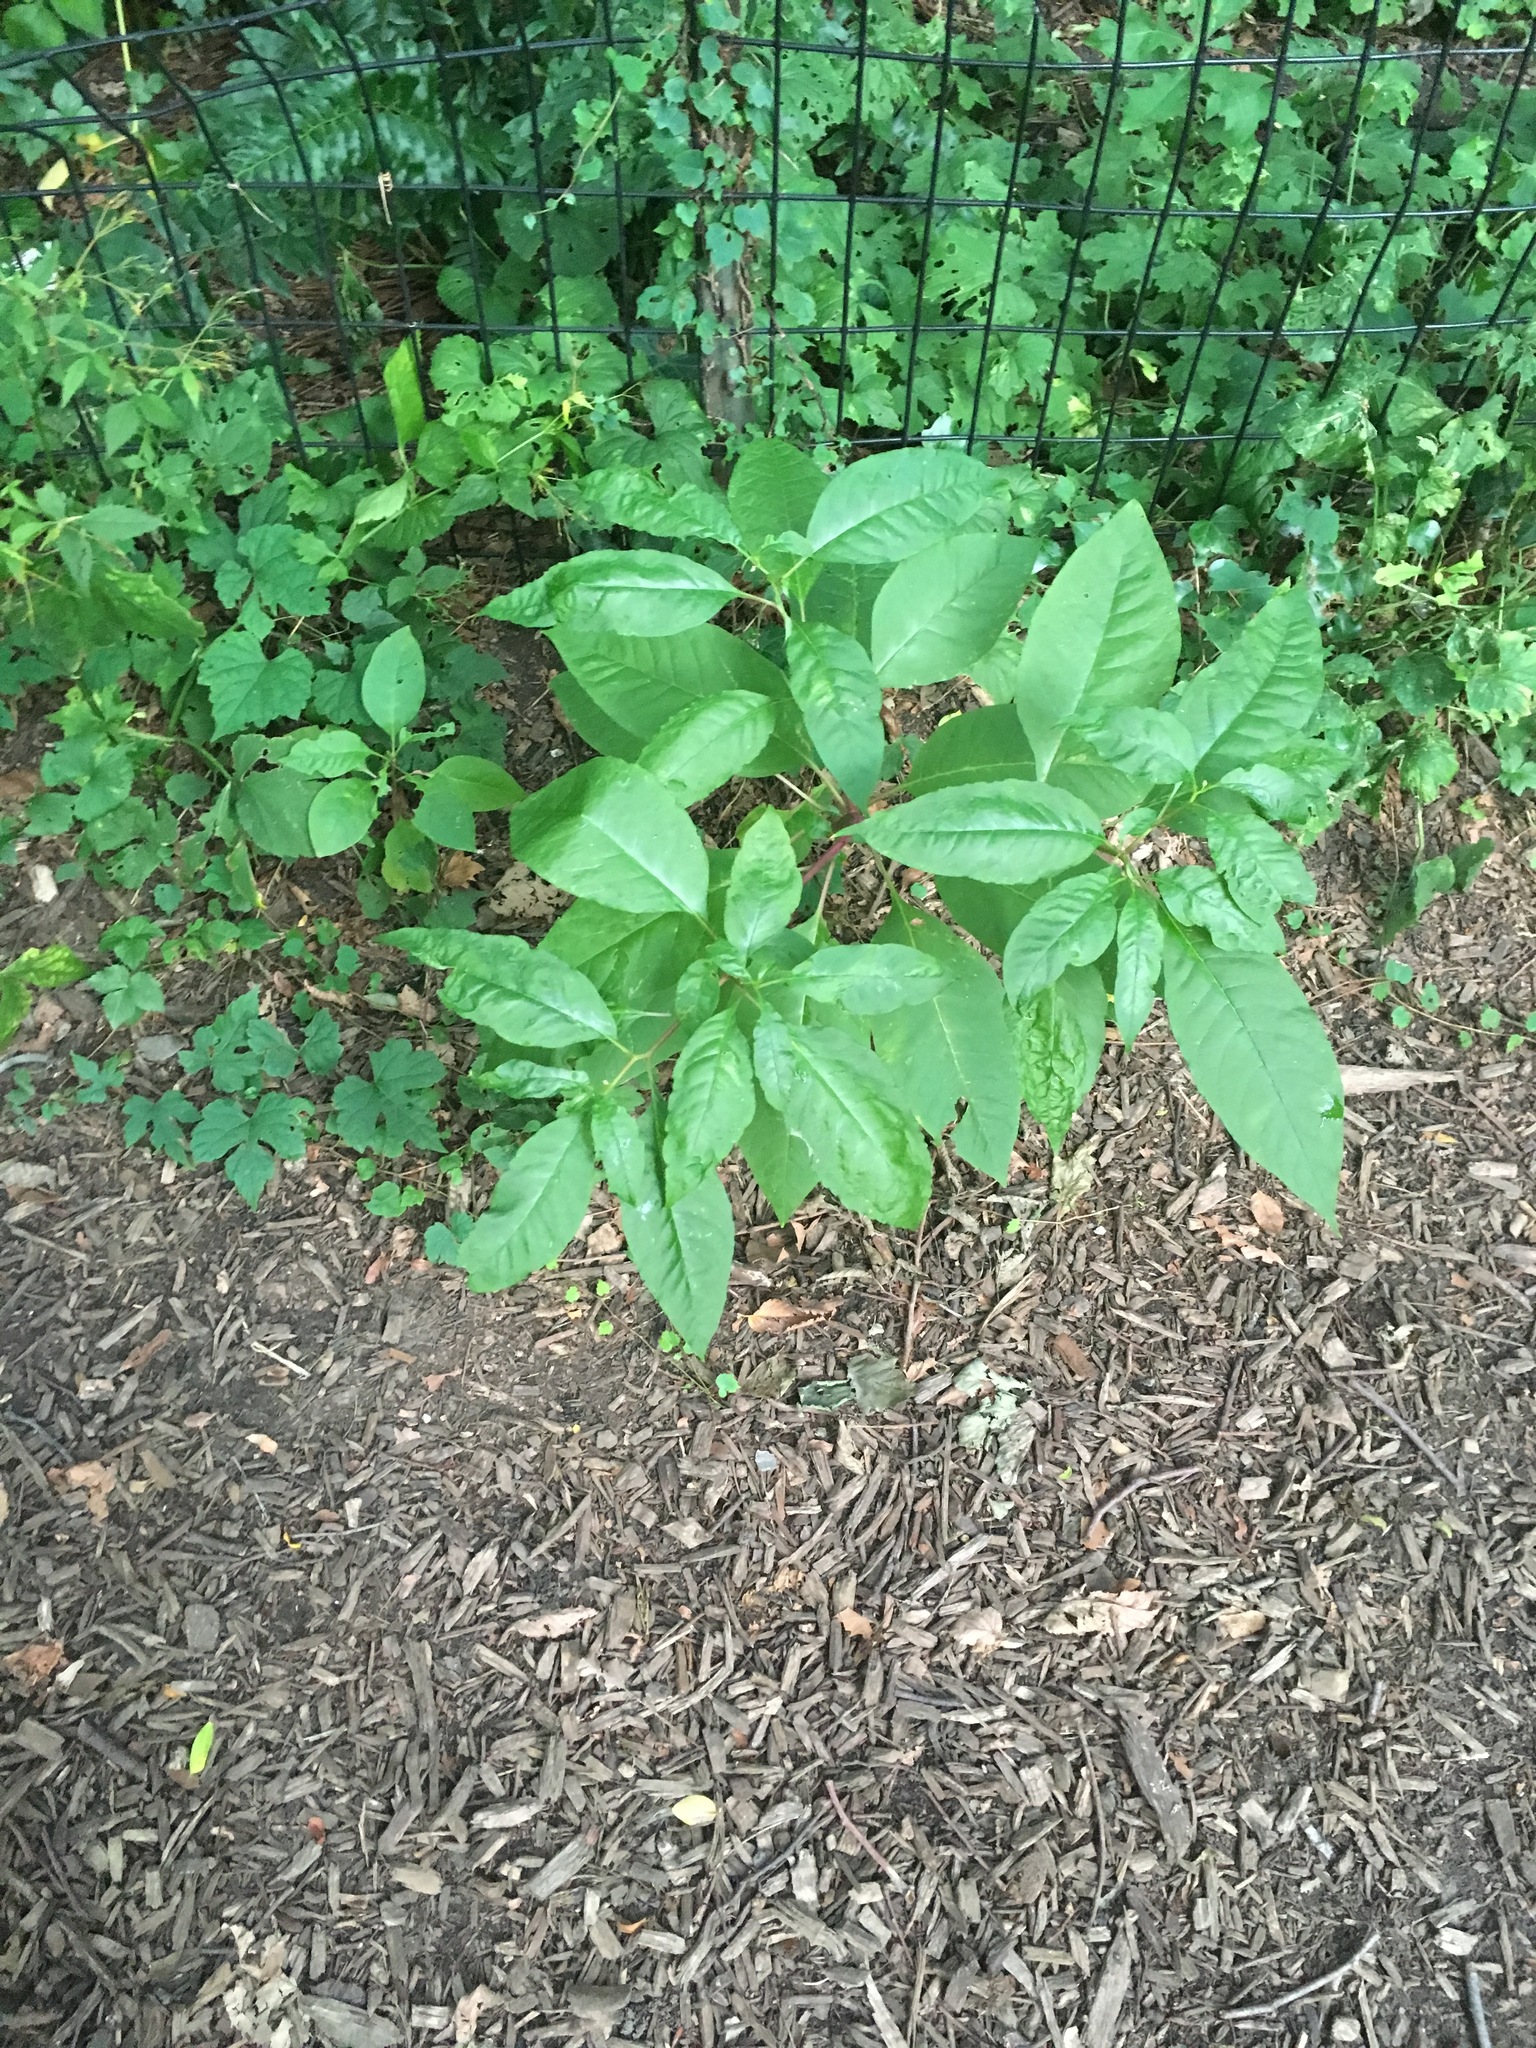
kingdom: Plantae
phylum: Tracheophyta
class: Magnoliopsida
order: Caryophyllales
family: Phytolaccaceae
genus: Phytolacca
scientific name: Phytolacca americana
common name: American pokeweed
